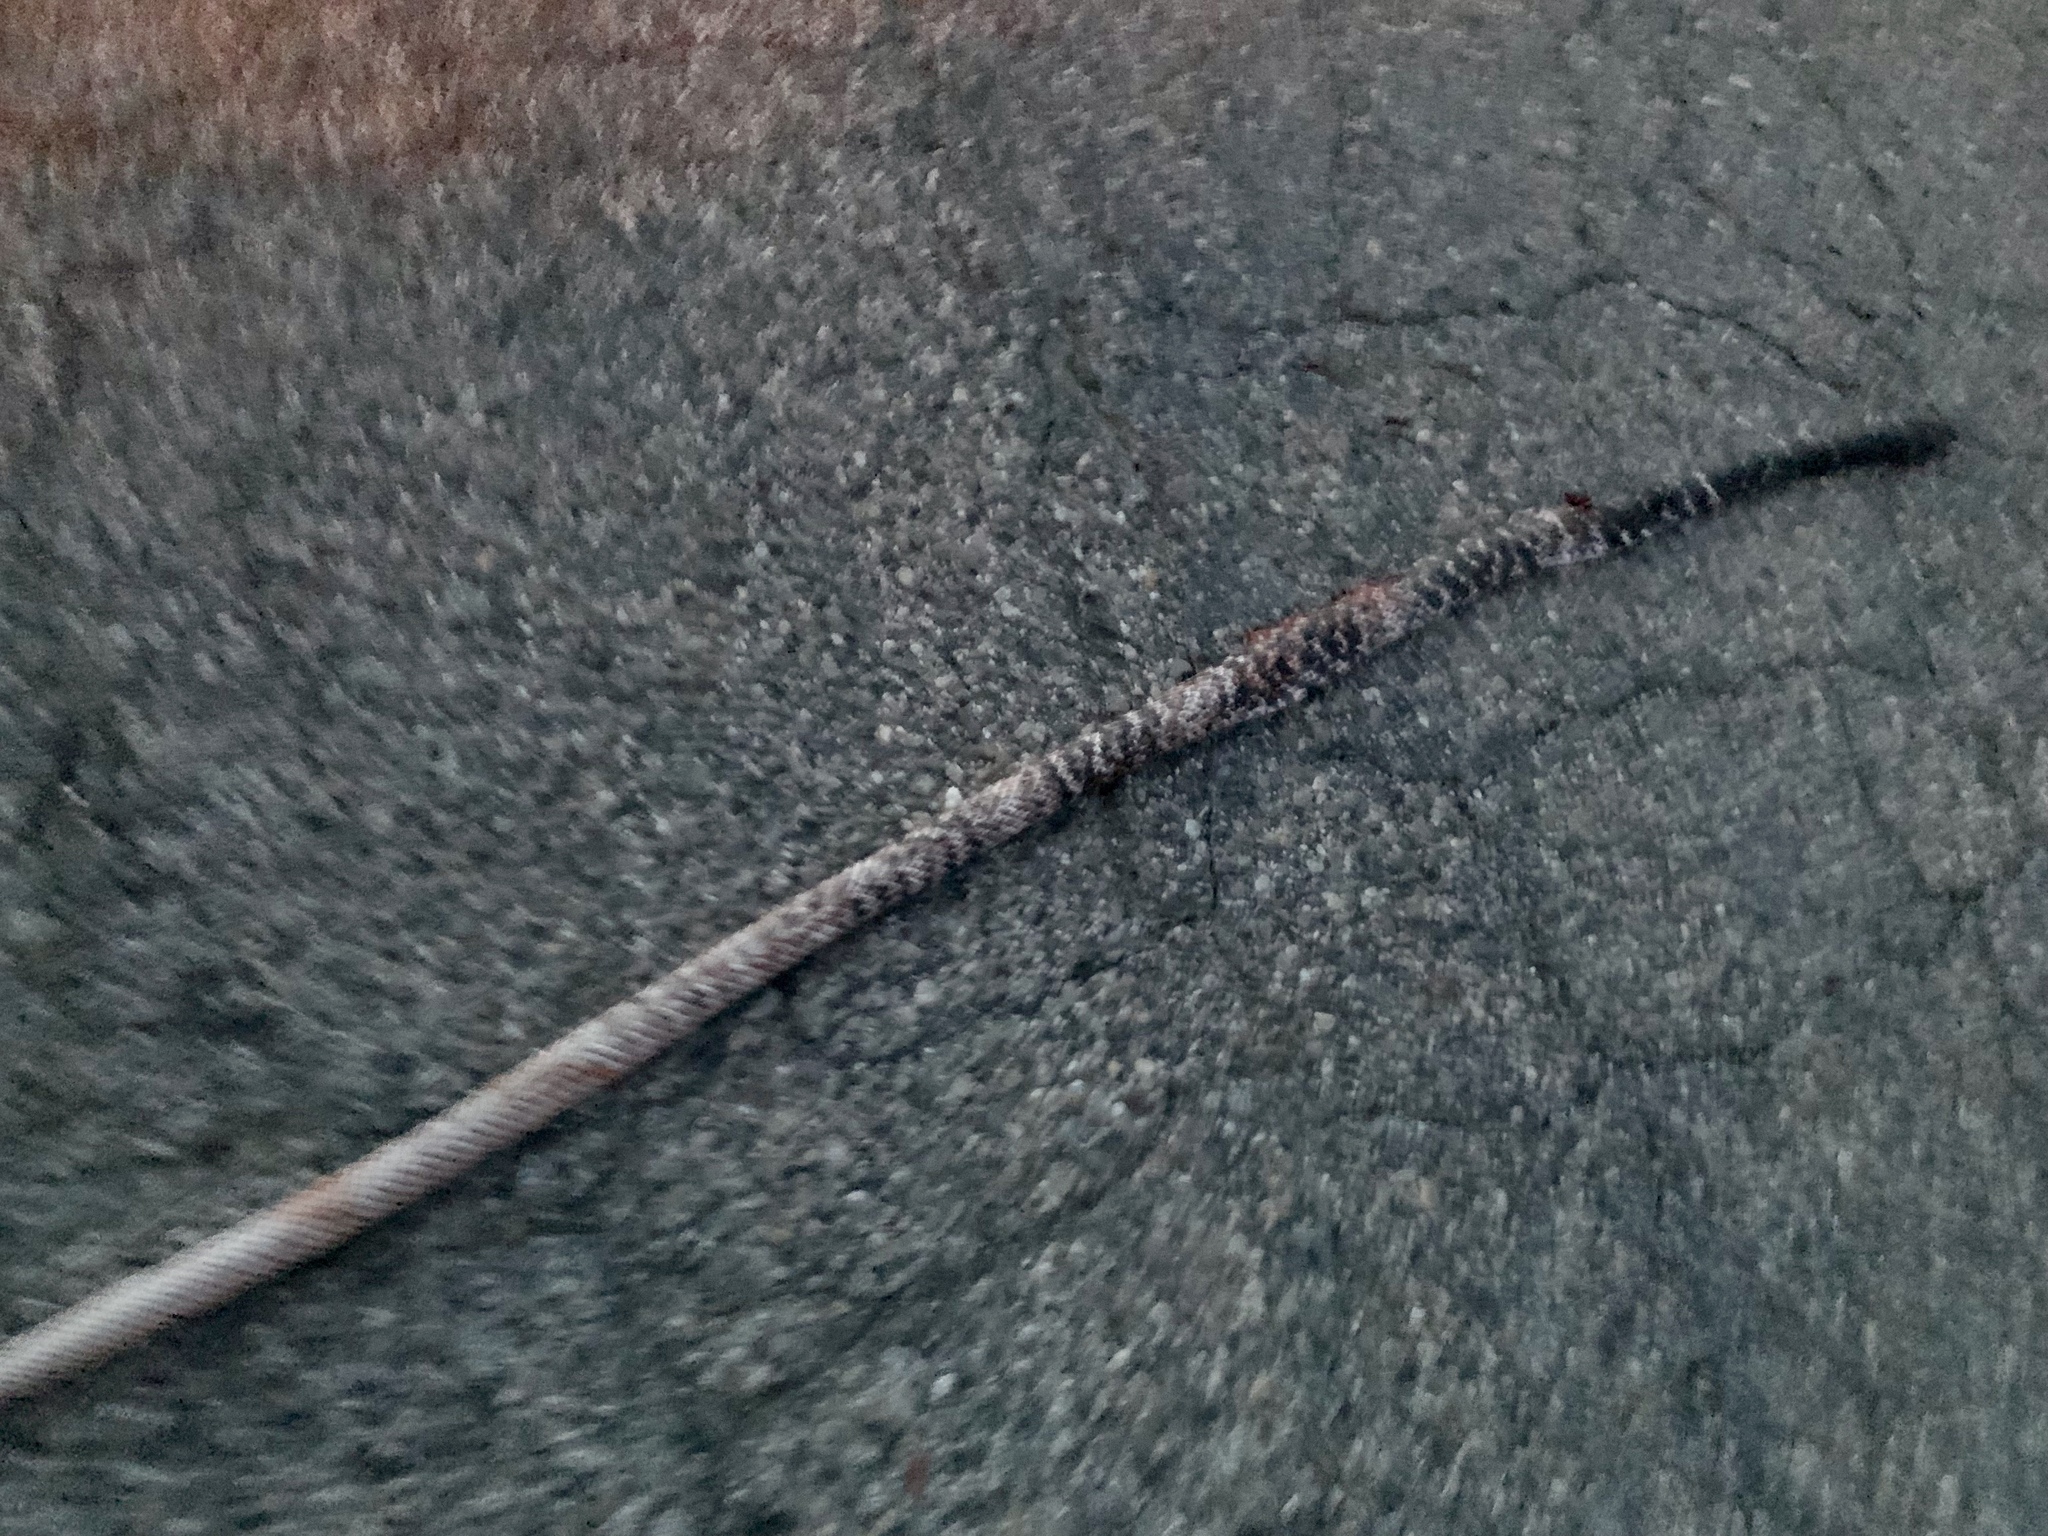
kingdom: Animalia
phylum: Chordata
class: Squamata
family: Colubridae
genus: Masticophis
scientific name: Masticophis flagellum
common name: Coachwhip
